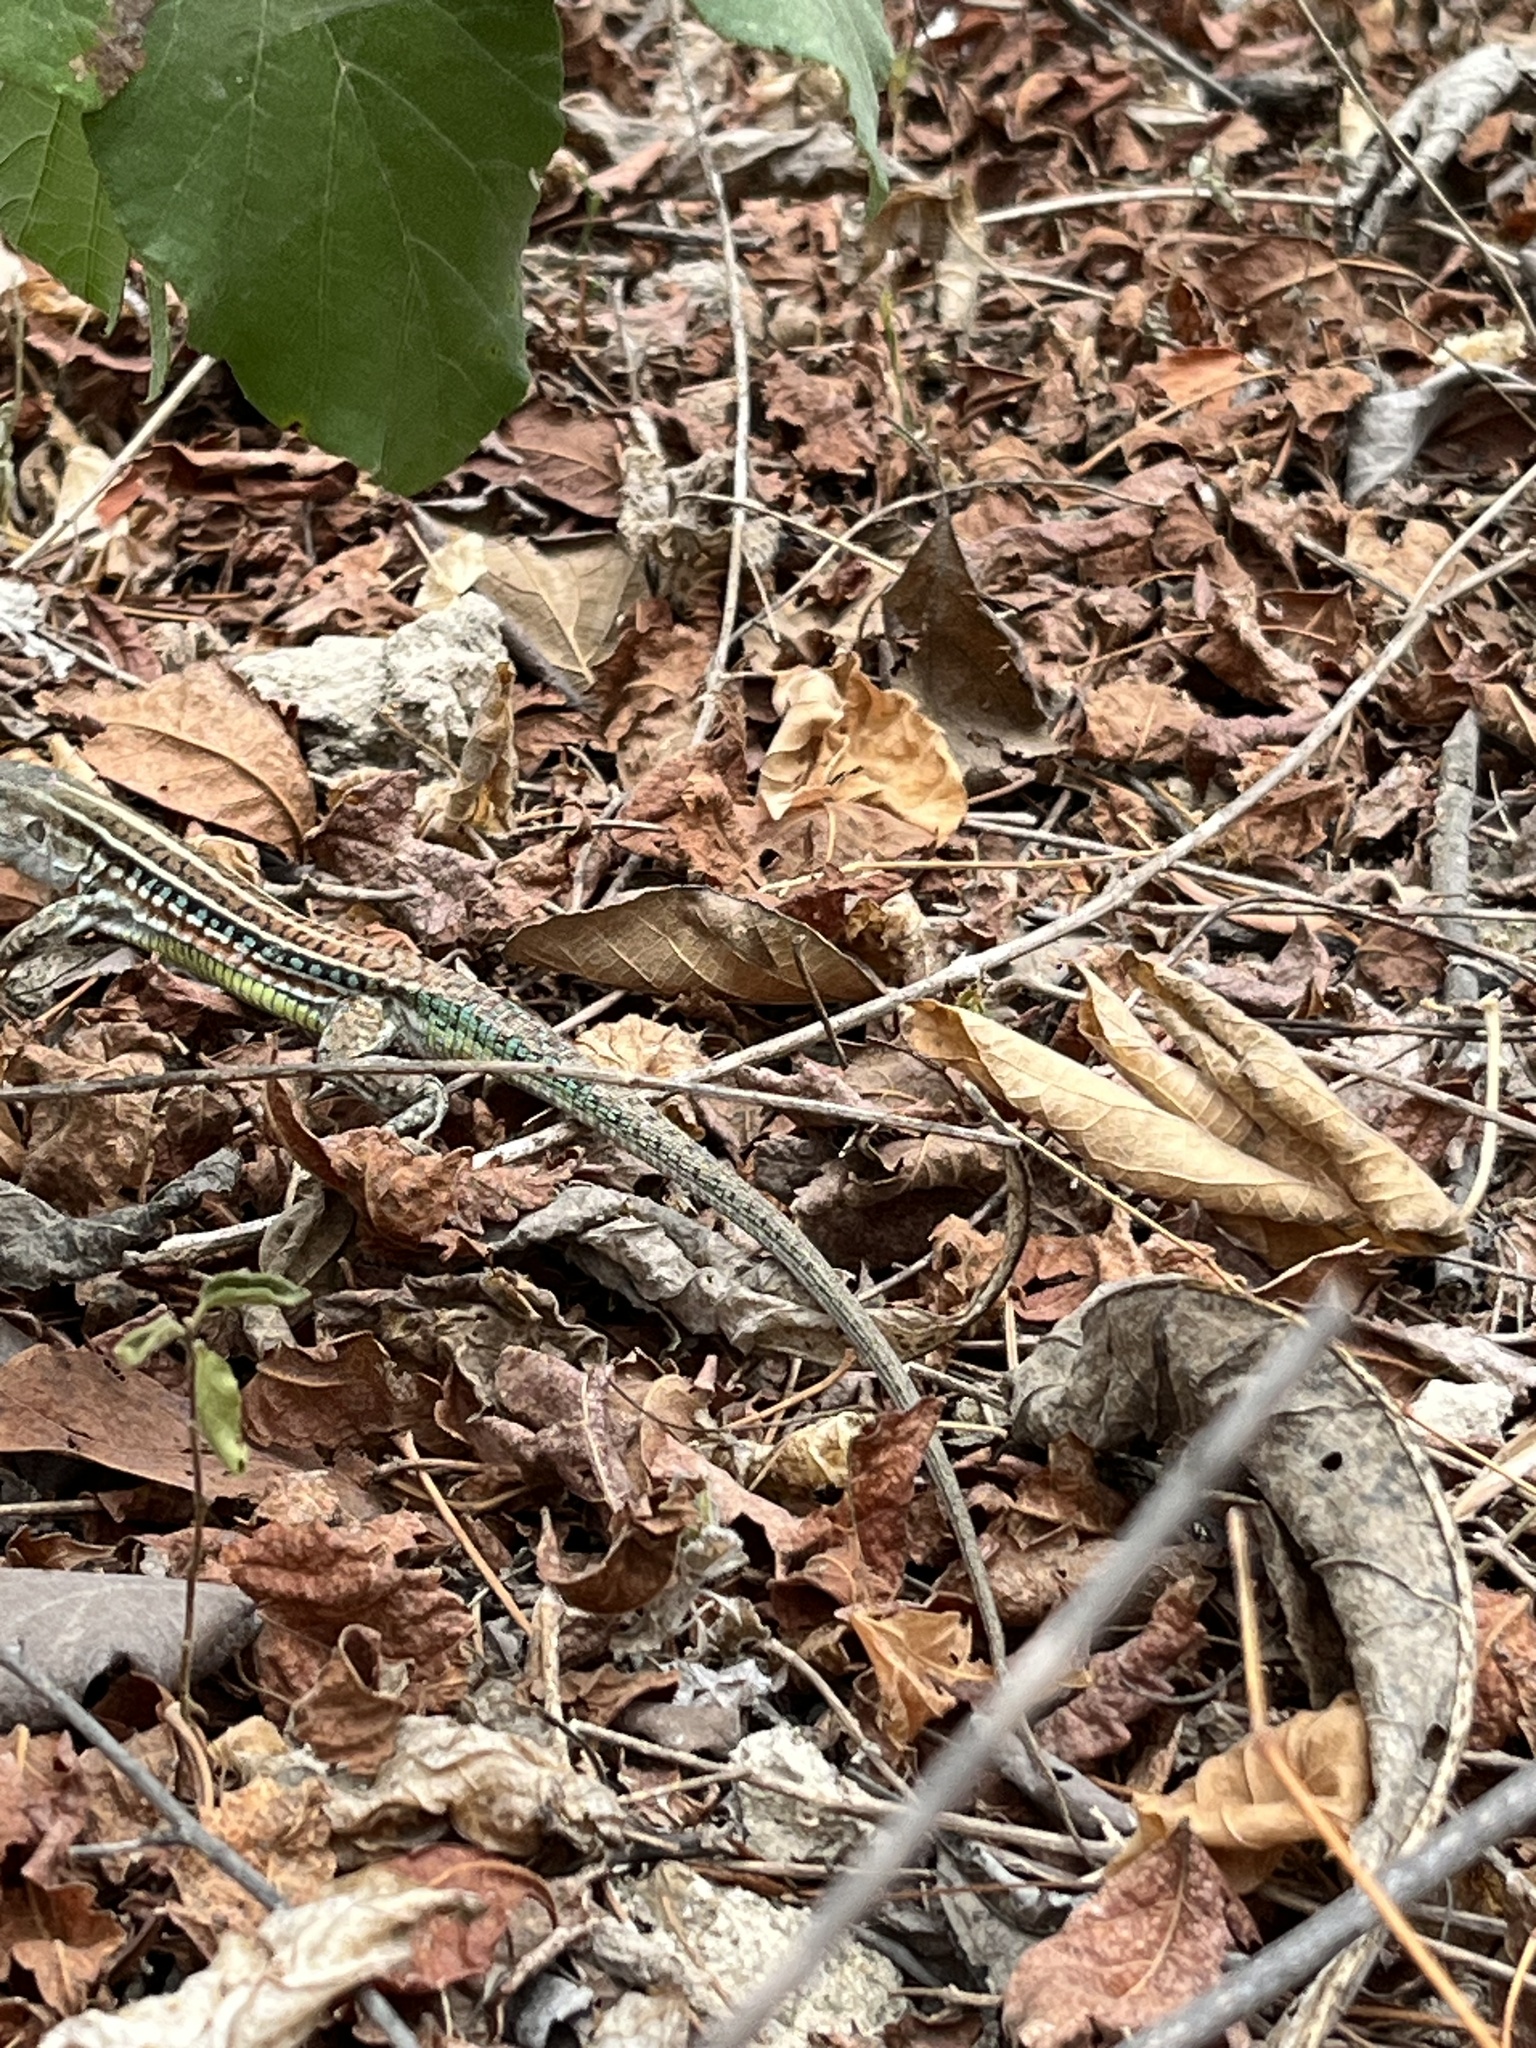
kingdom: Animalia
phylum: Chordata
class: Squamata
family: Teiidae
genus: Medopheos
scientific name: Medopheos edracanthus
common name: Bocourt's ameiva
